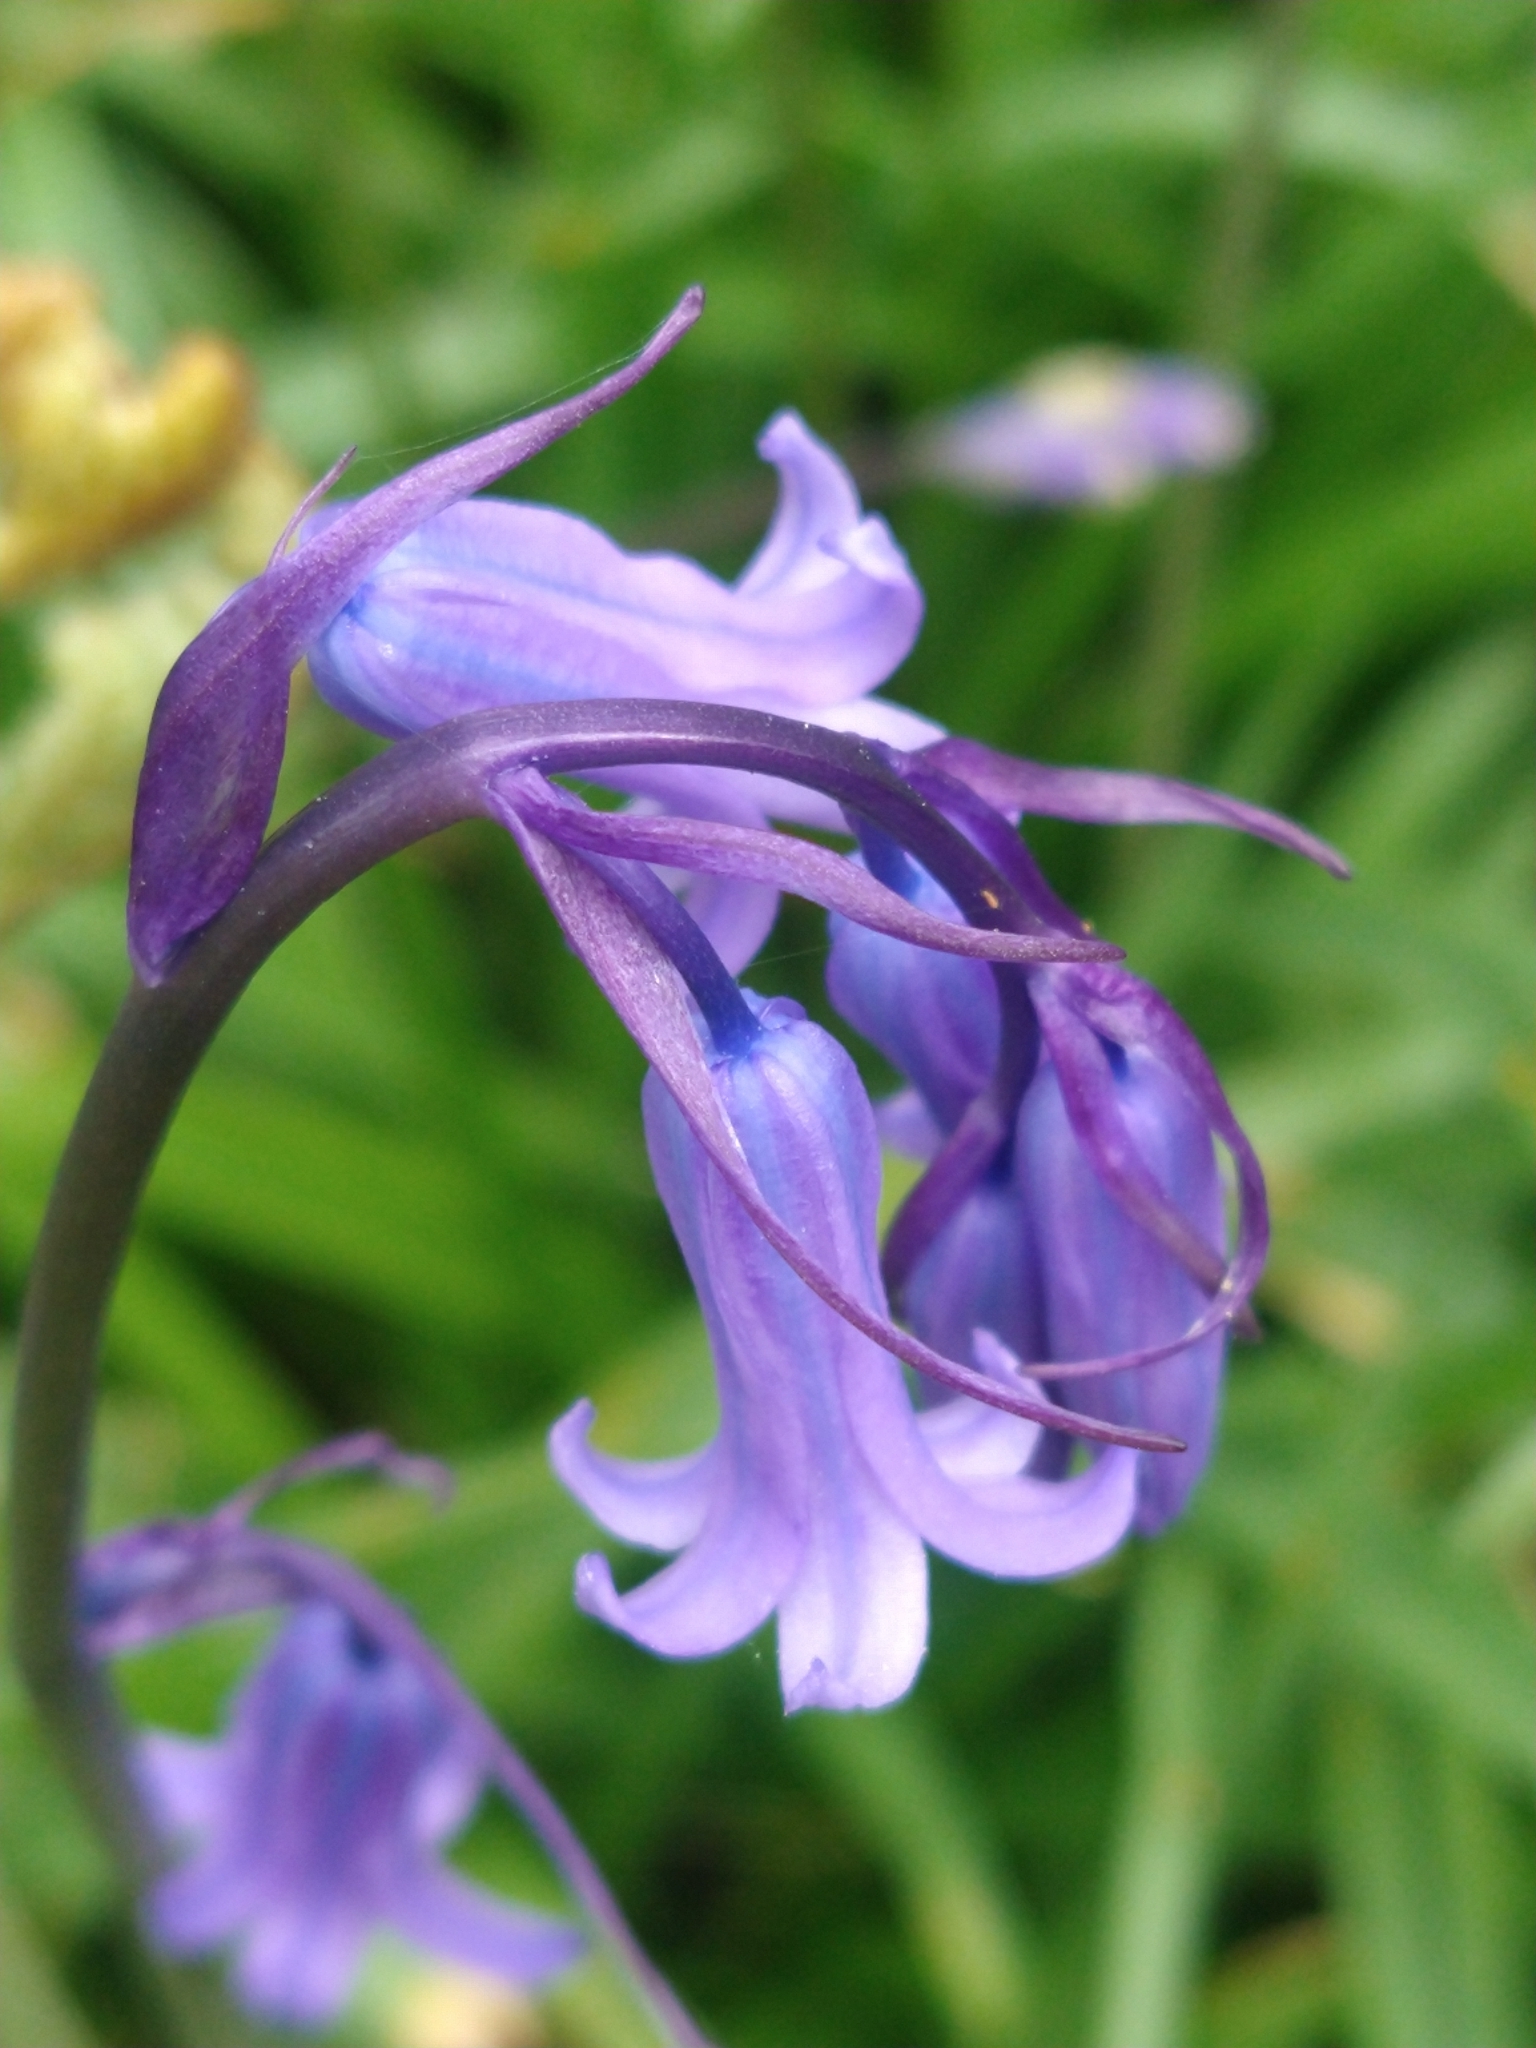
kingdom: Plantae
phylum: Tracheophyta
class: Liliopsida
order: Asparagales
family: Asparagaceae
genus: Hyacinthoides
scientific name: Hyacinthoides non-scripta
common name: Bluebell
